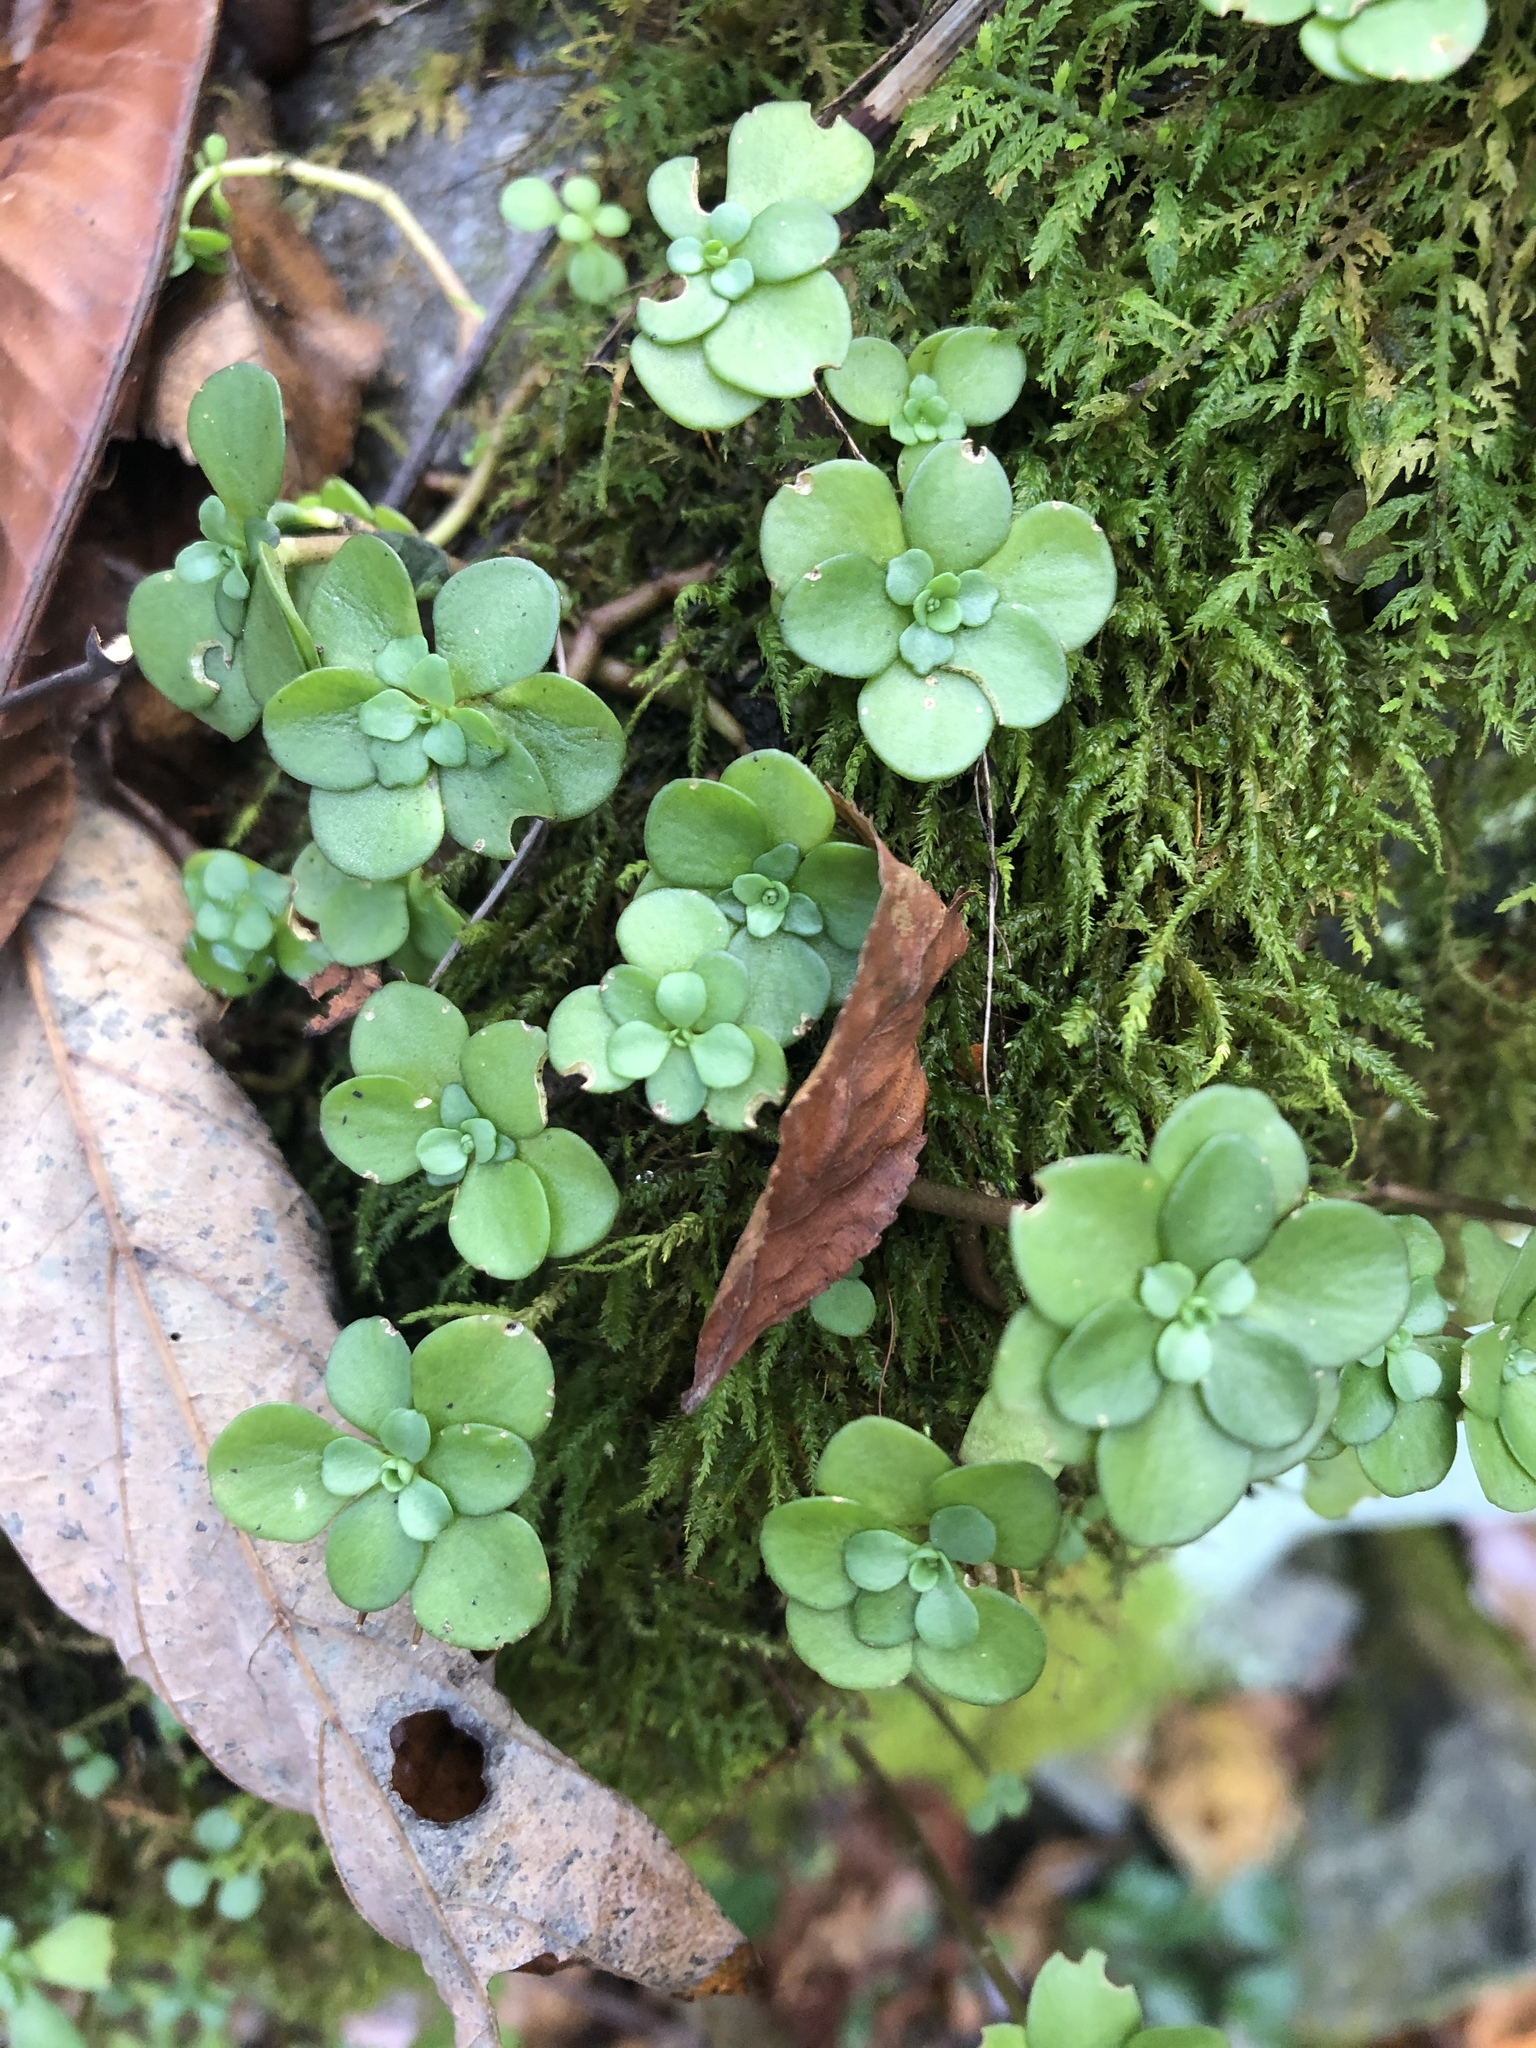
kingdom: Plantae
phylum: Tracheophyta
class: Magnoliopsida
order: Saxifragales
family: Crassulaceae
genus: Sedum
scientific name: Sedum ternatum
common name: Wild stonecrop
